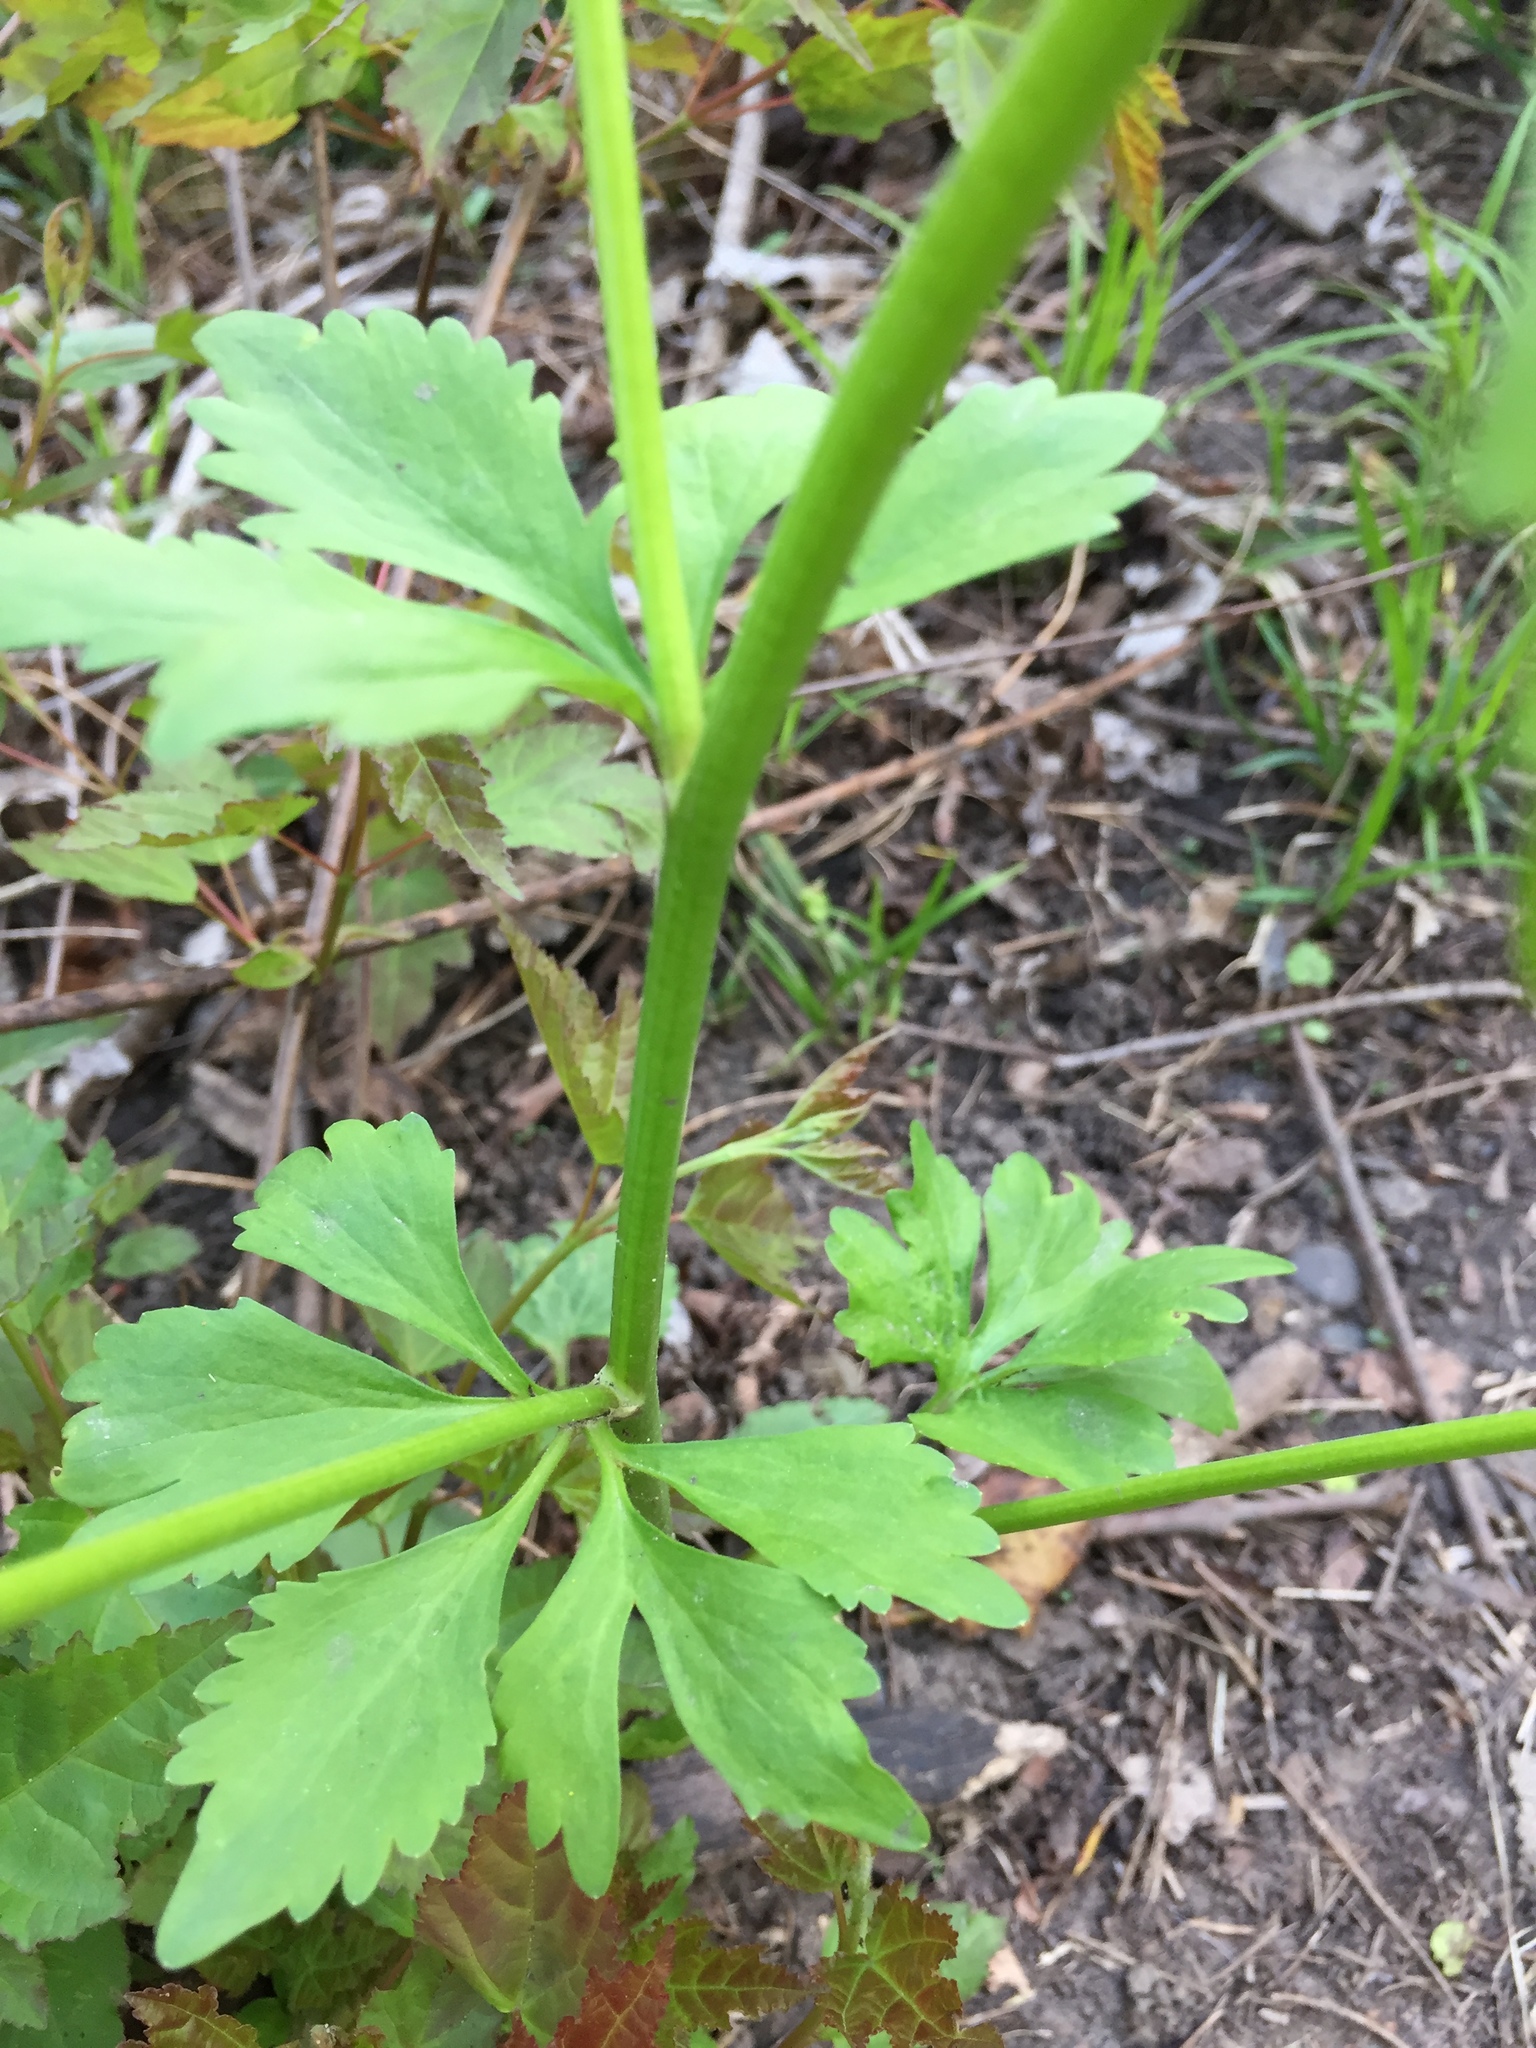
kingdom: Plantae
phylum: Tracheophyta
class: Magnoliopsida
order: Ranunculales
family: Ranunculaceae
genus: Ranunculus
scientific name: Ranunculus abortivus
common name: Early wood buttercup
